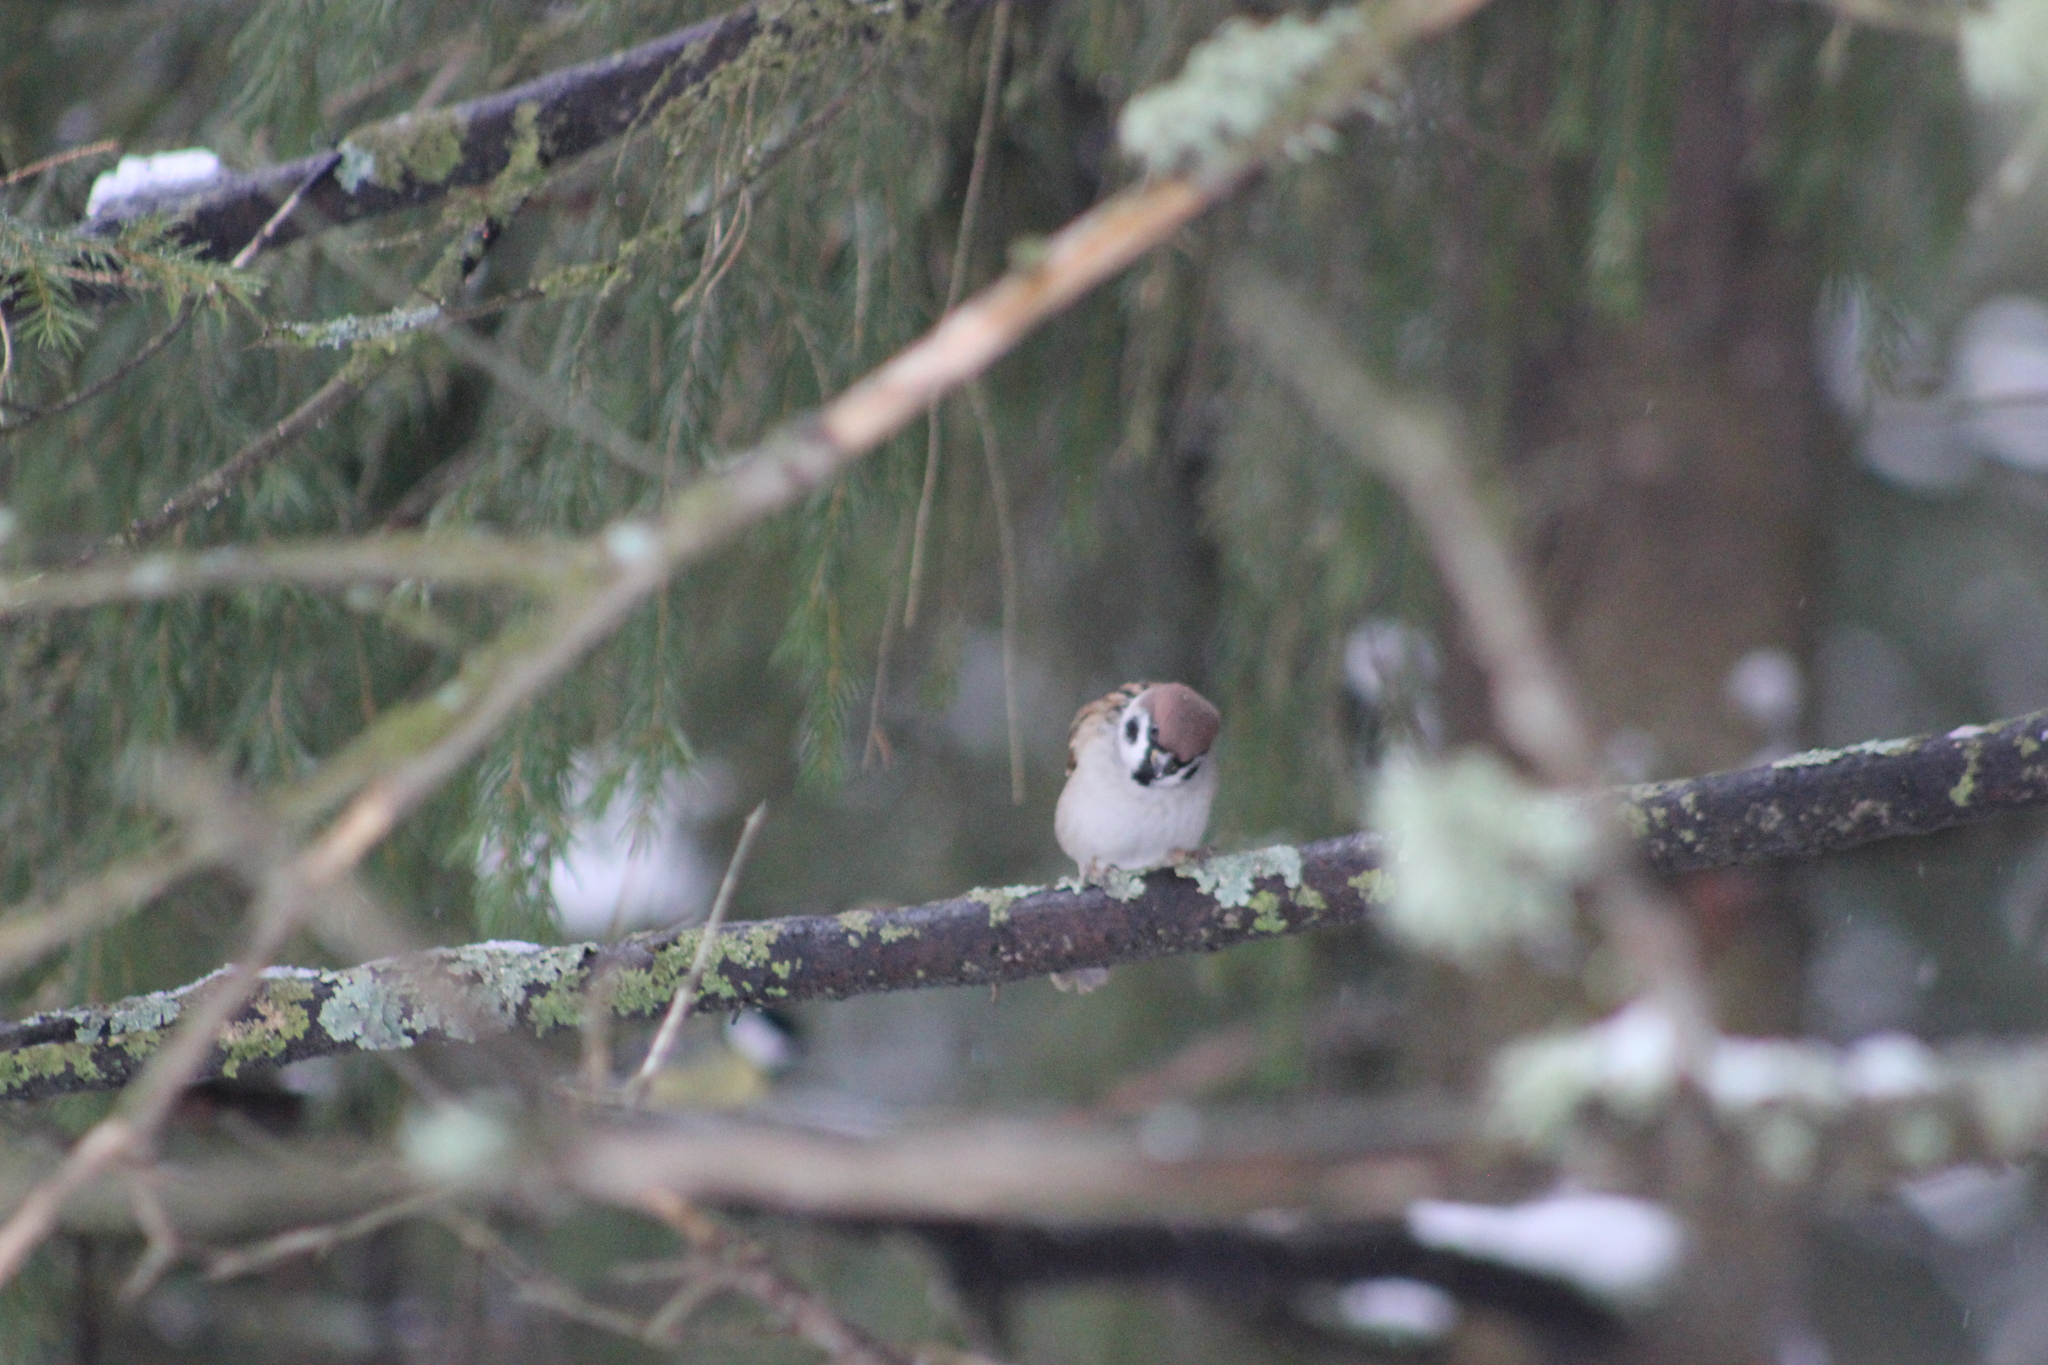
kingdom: Animalia
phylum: Chordata
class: Aves
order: Passeriformes
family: Passeridae
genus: Passer
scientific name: Passer montanus
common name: Eurasian tree sparrow
